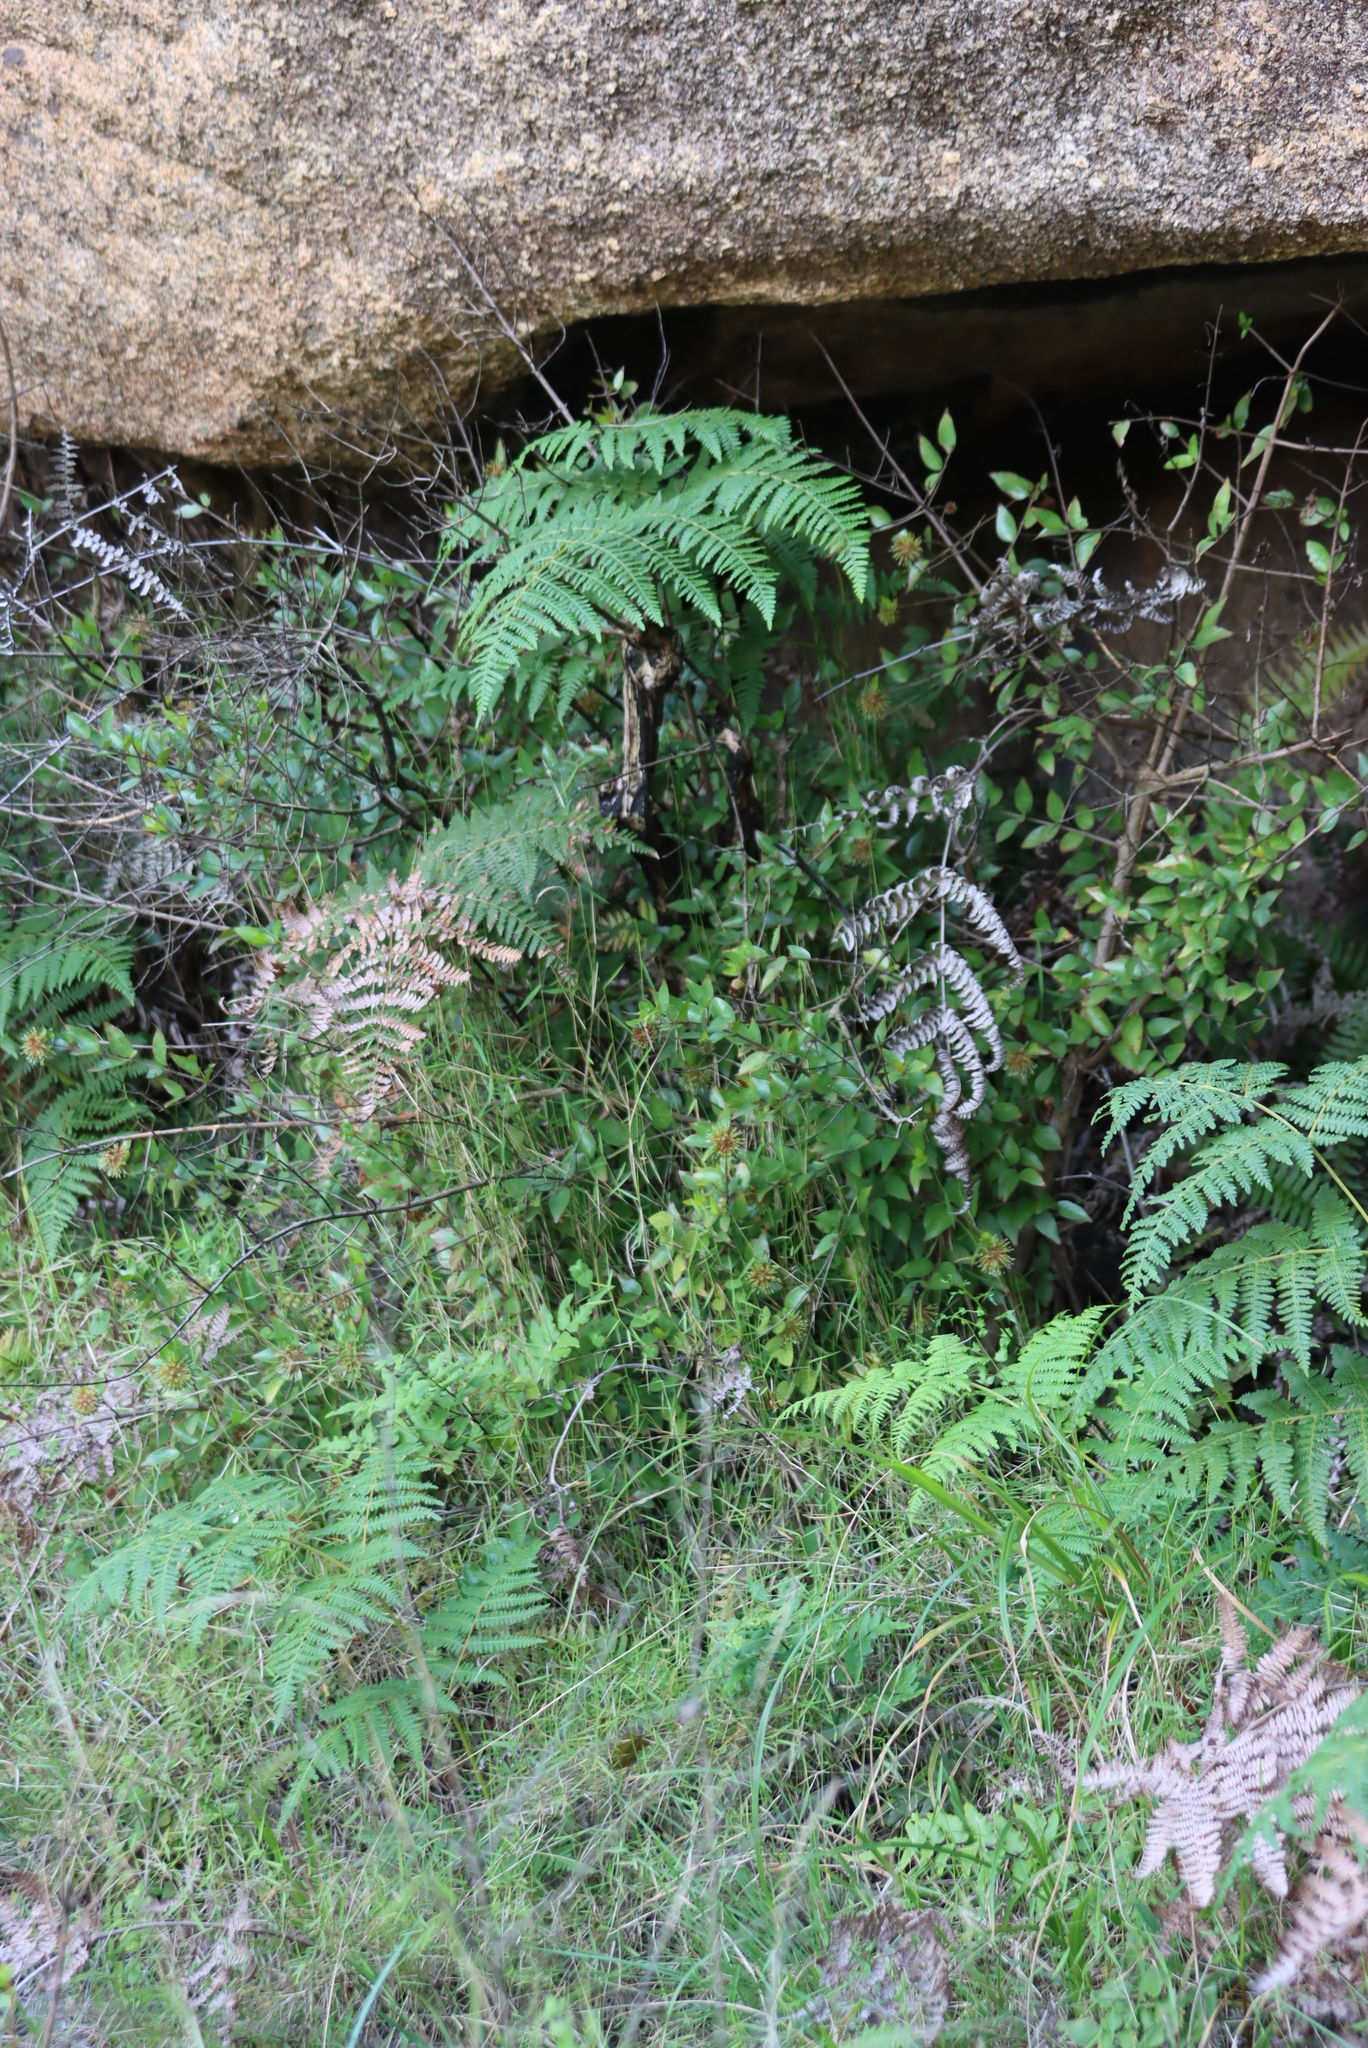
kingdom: Plantae
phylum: Tracheophyta
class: Polypodiopsida
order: Polypodiales
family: Dennstaedtiaceae
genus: Pteridium
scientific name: Pteridium aquilinum
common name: Bracken
